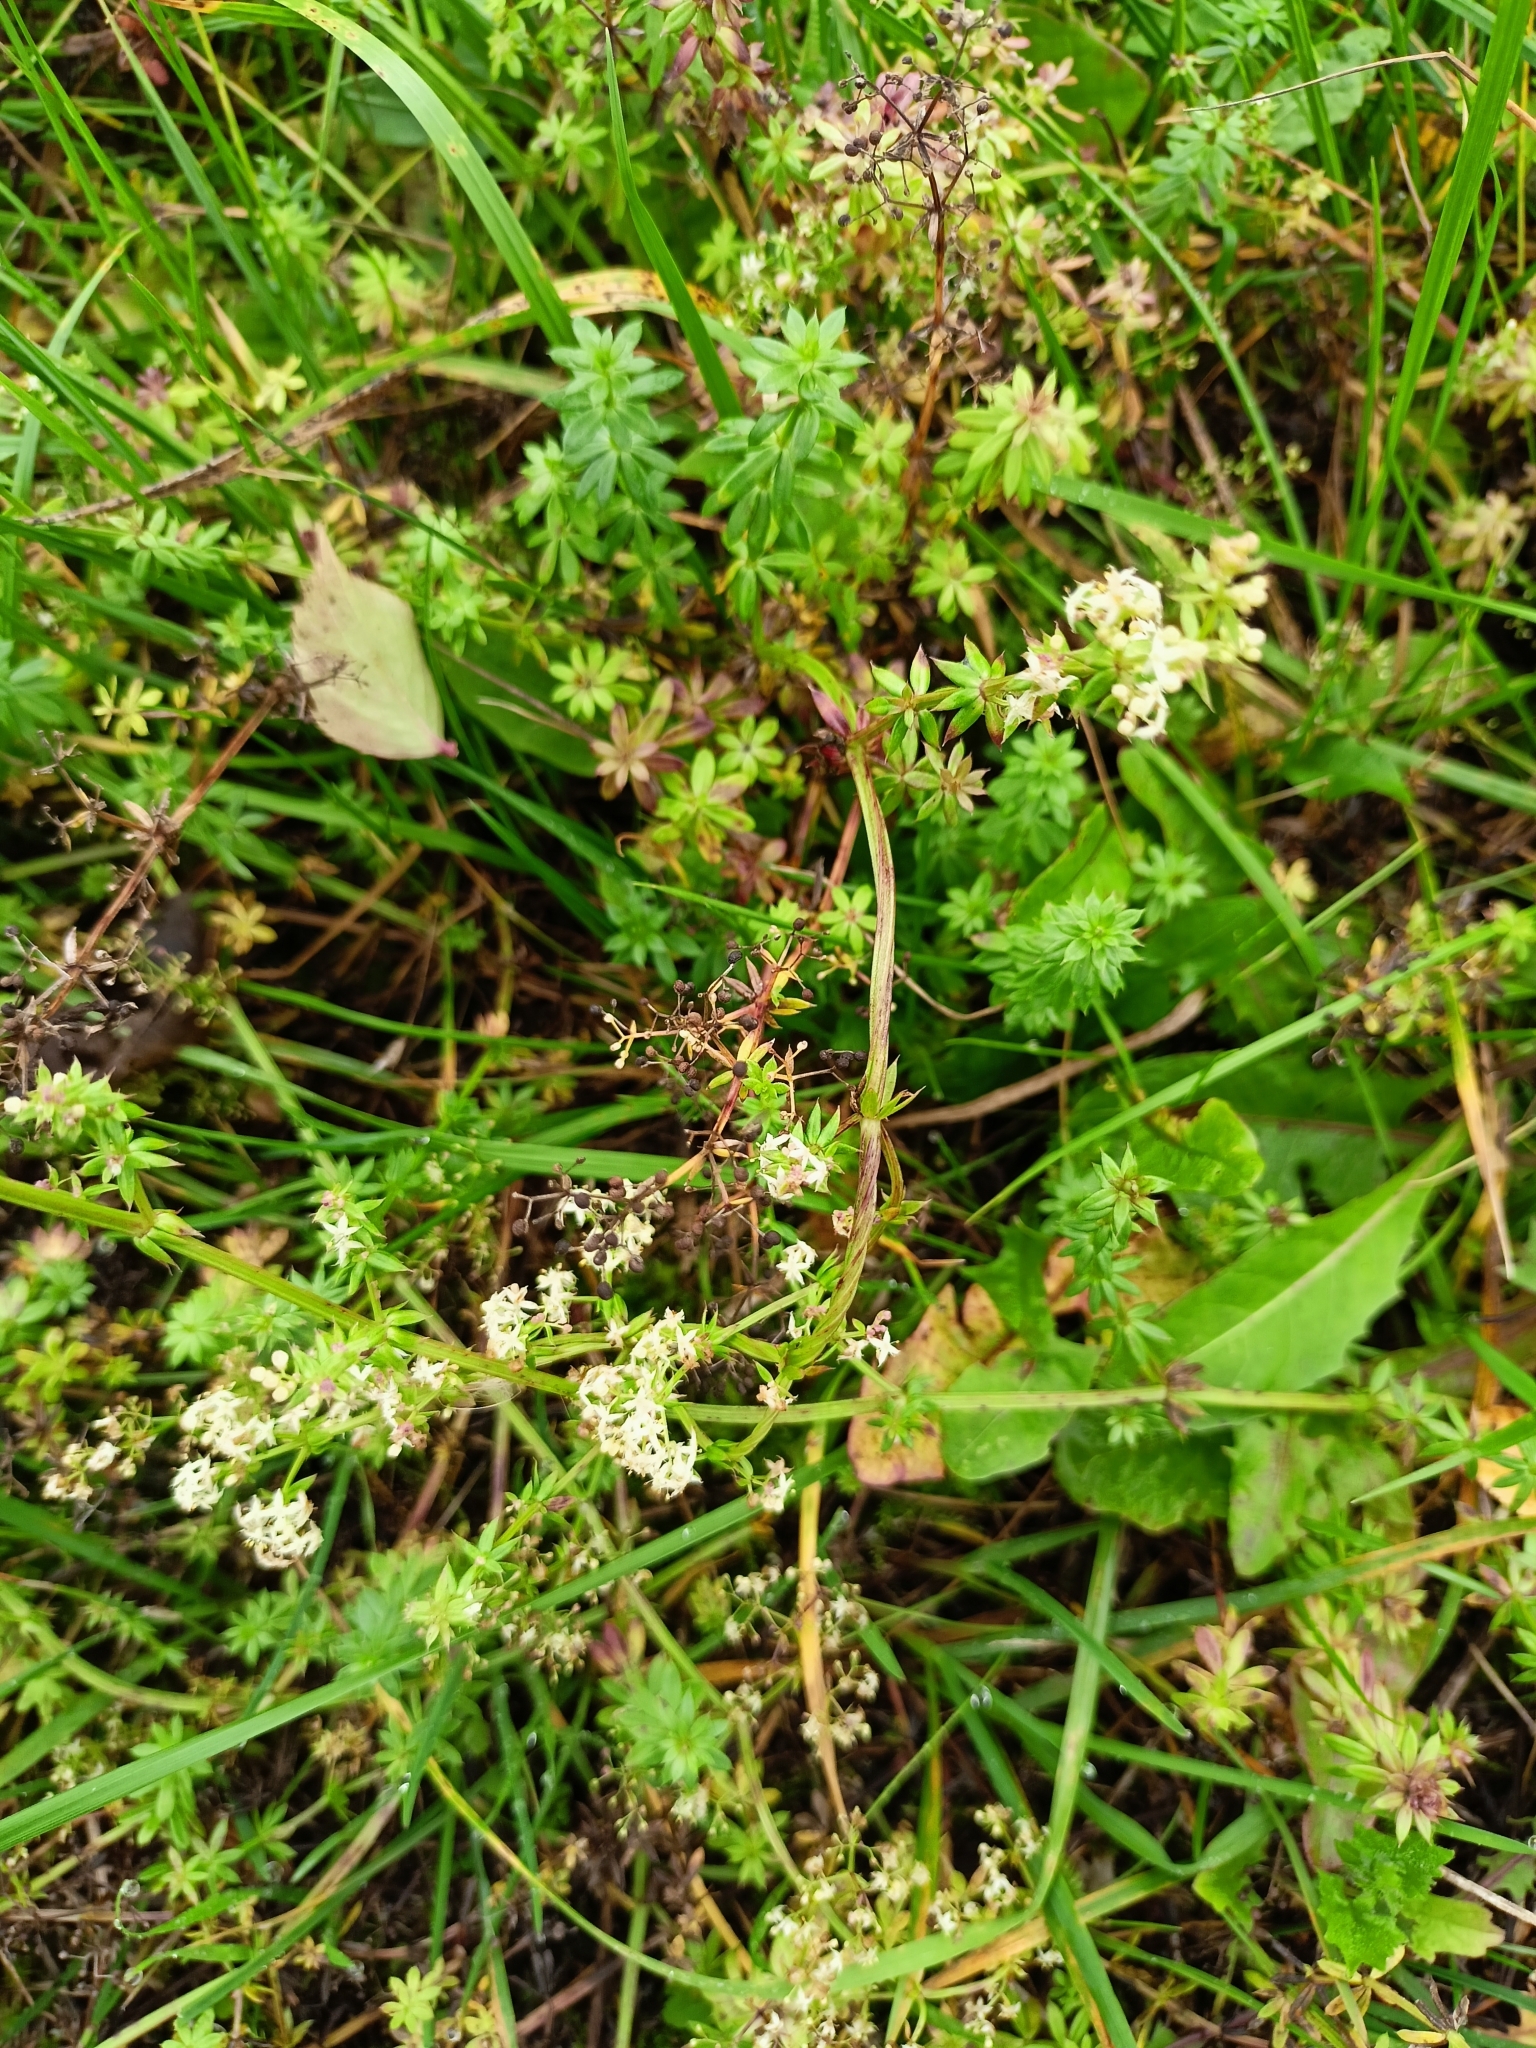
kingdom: Plantae
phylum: Tracheophyta
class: Magnoliopsida
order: Gentianales
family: Rubiaceae
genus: Galium
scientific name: Galium mollugo
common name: Hedge bedstraw
